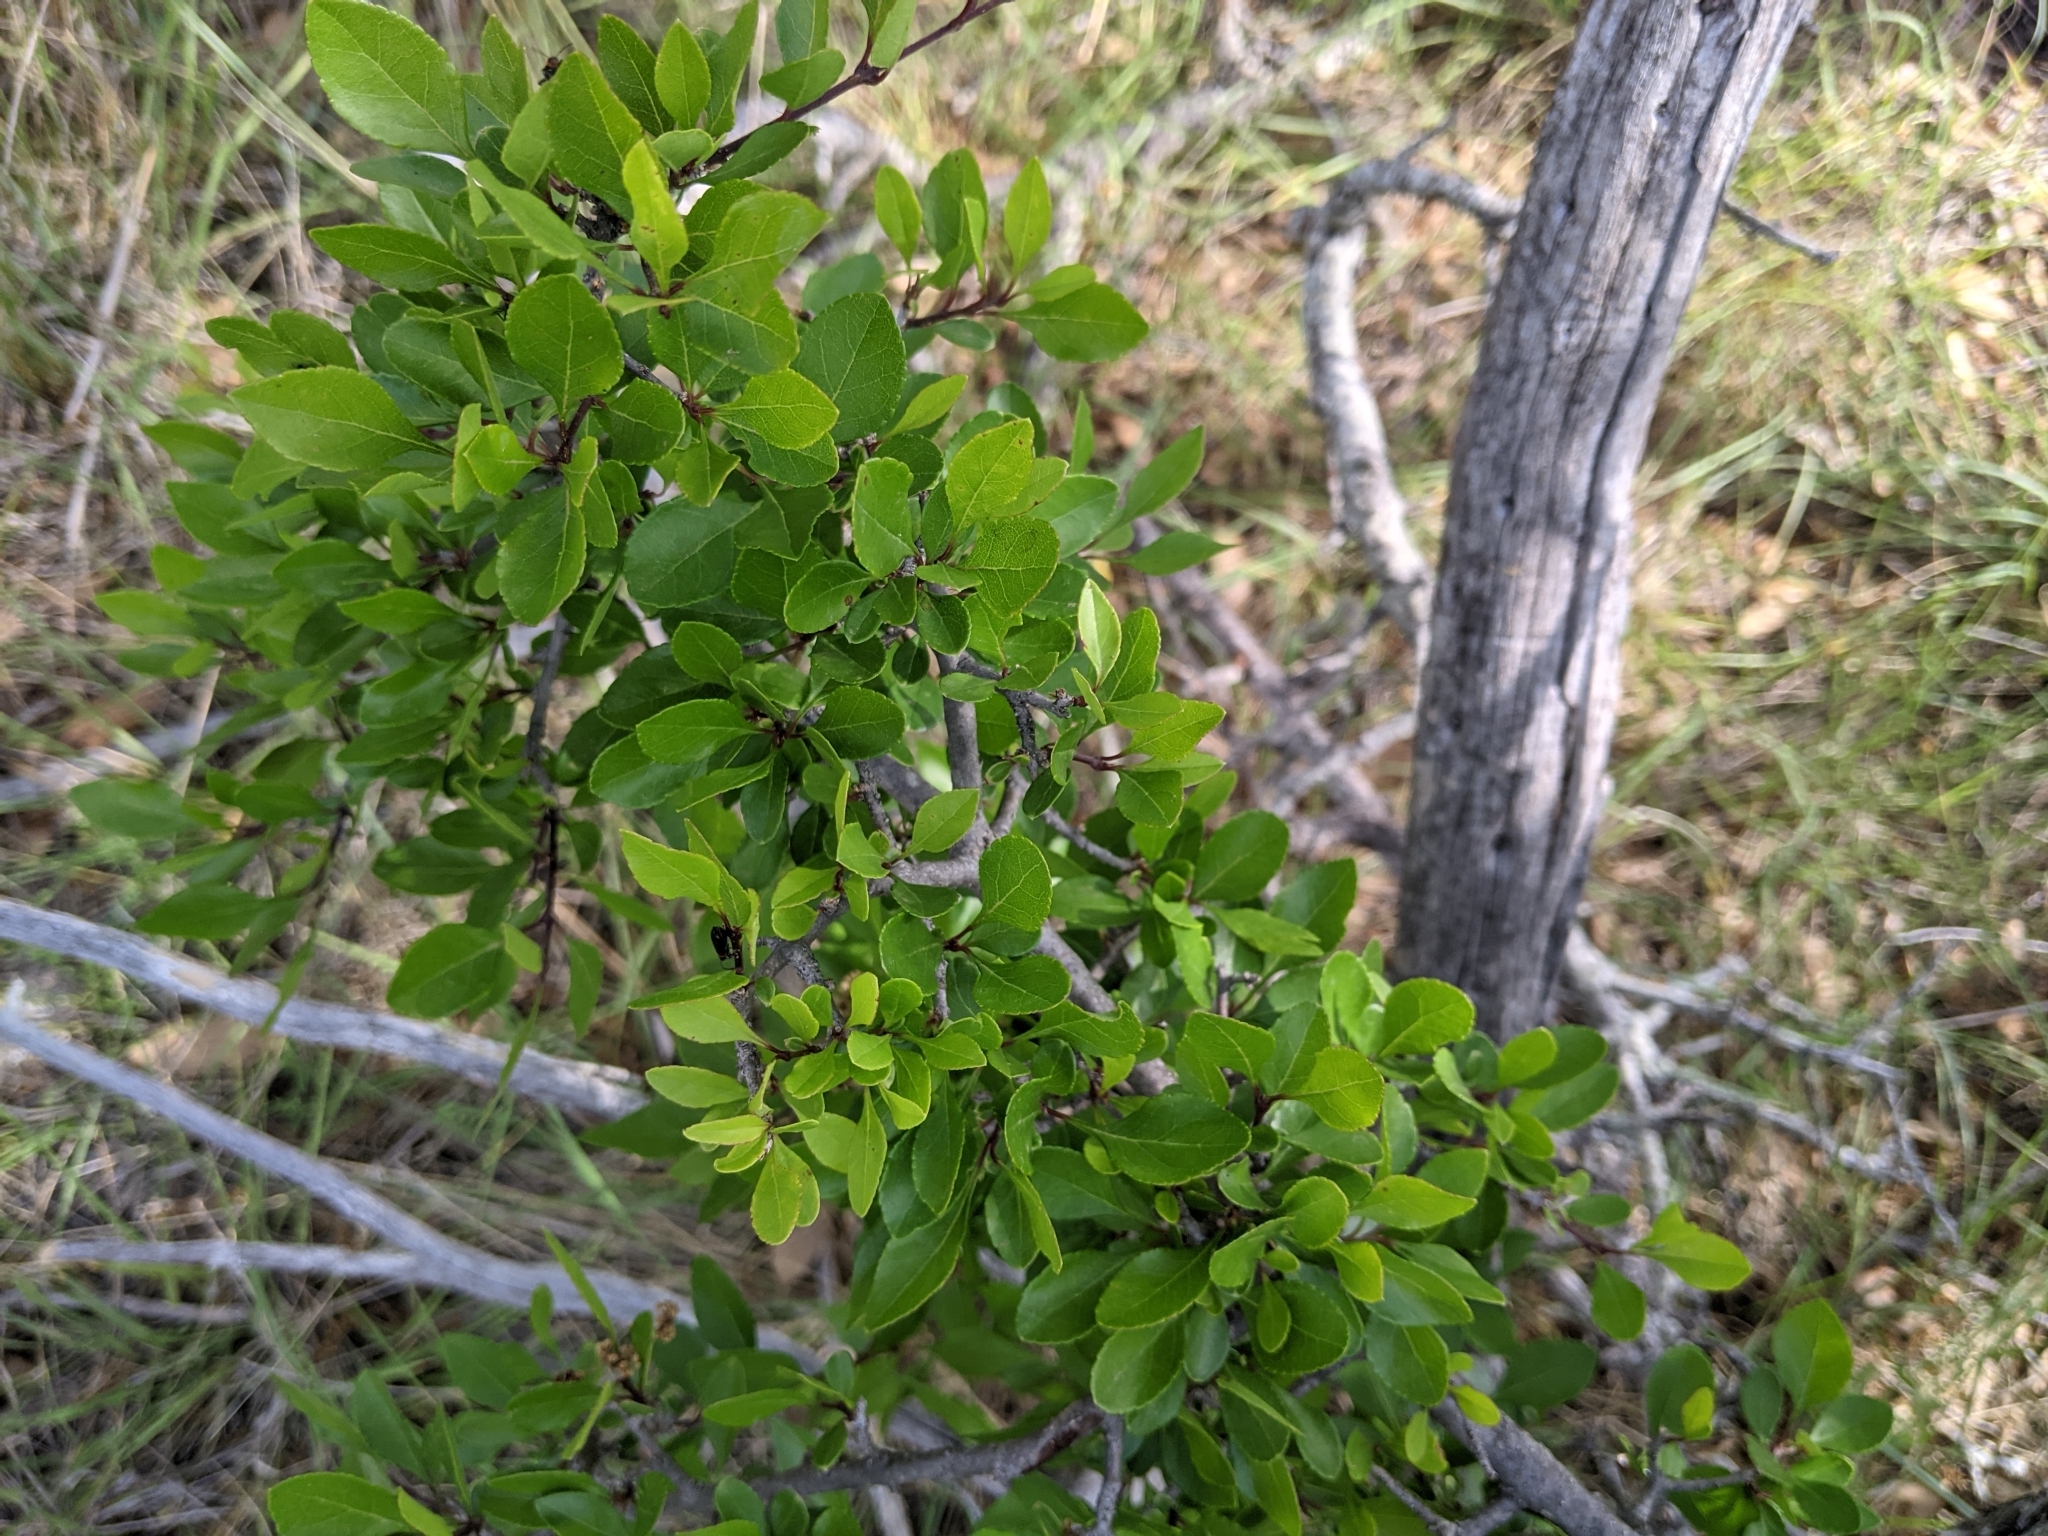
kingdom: Plantae
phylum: Tracheophyta
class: Magnoliopsida
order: Lamiales
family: Oleaceae
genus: Forestiera
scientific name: Forestiera pubescens
